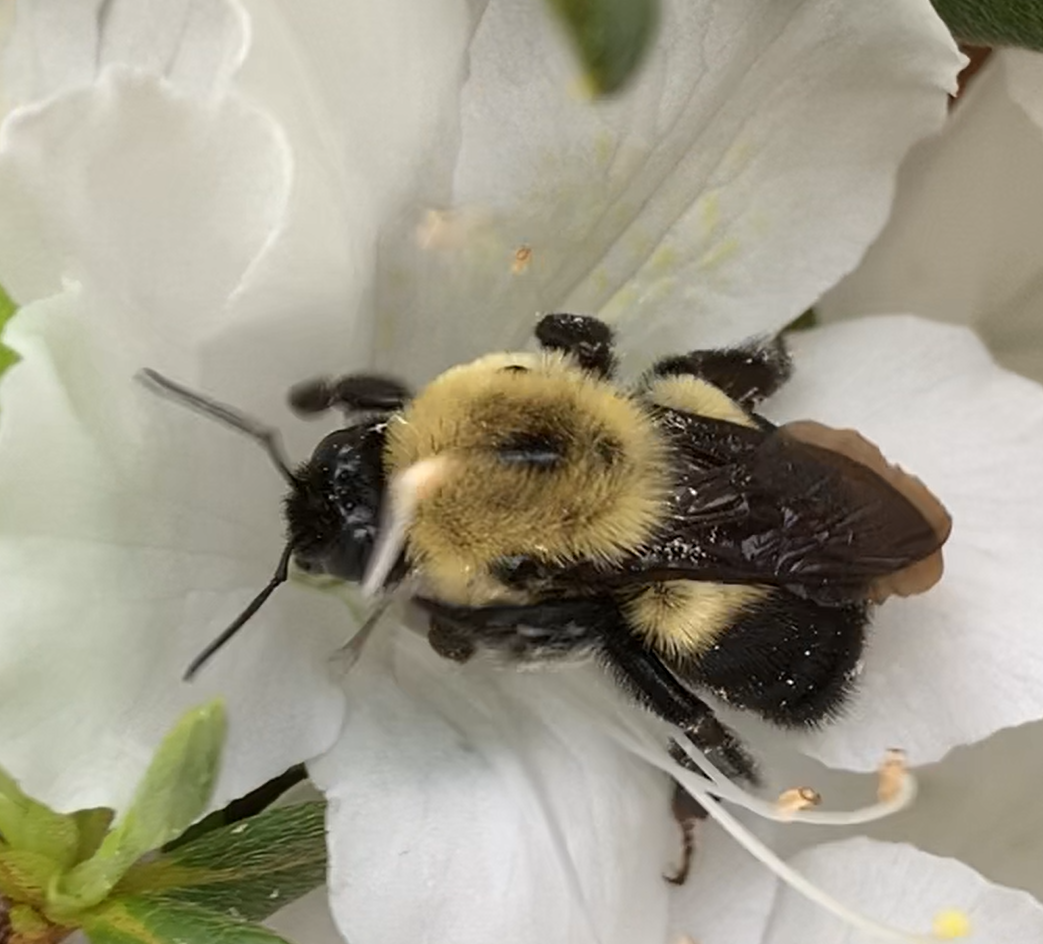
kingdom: Animalia
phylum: Arthropoda
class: Insecta
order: Hymenoptera
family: Apidae
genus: Bombus
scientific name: Bombus griseocollis
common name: Brown-belted bumble bee
